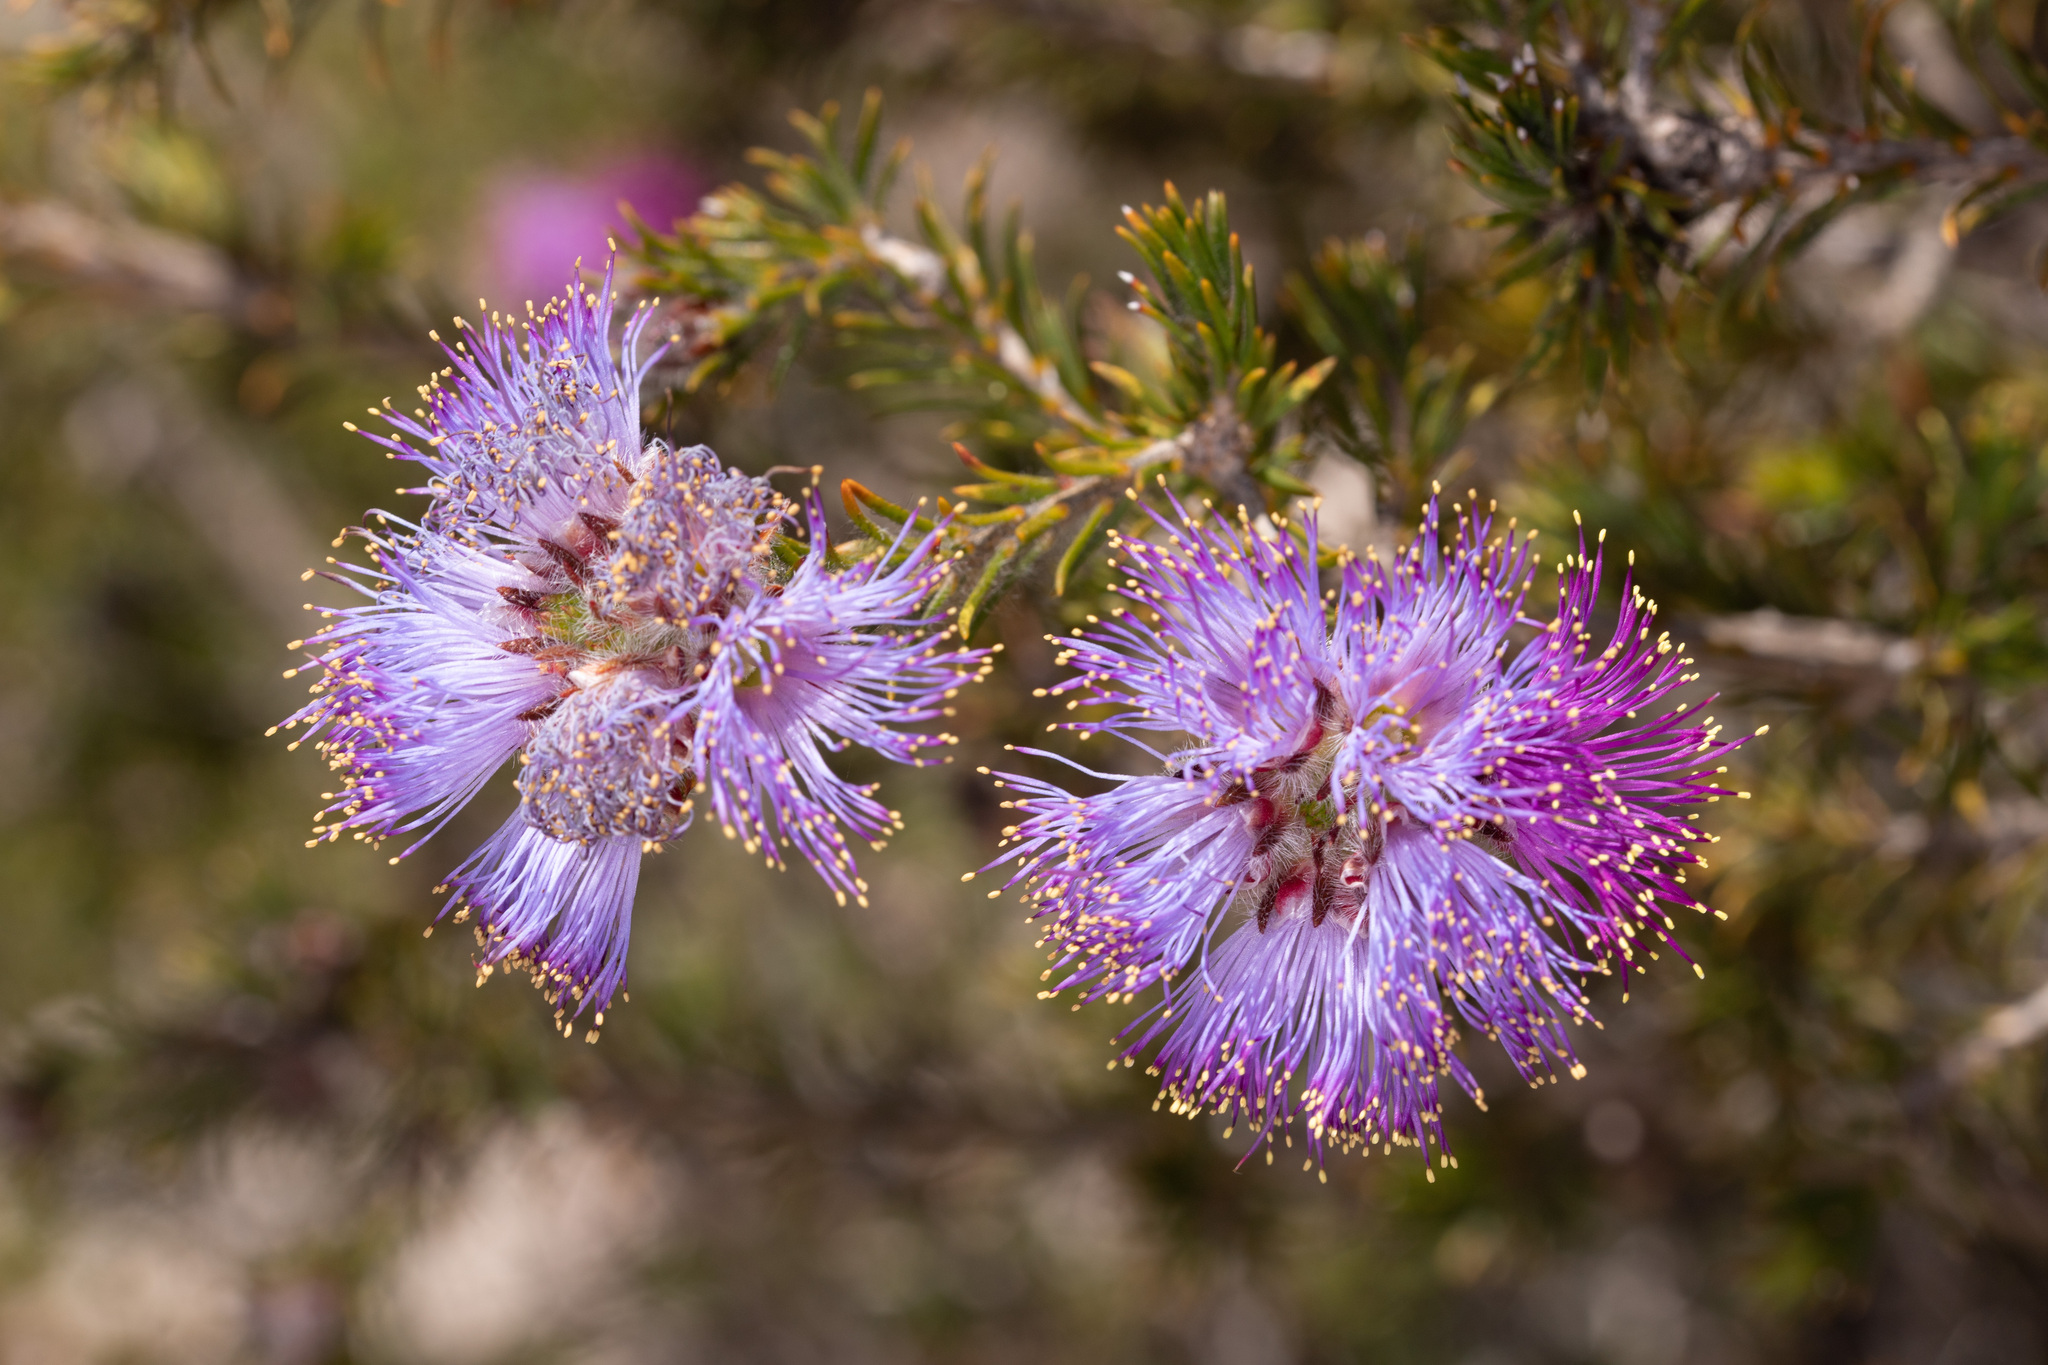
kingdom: Plantae
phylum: Tracheophyta
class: Magnoliopsida
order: Myrtales
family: Myrtaceae
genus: Melaleuca
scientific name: Melaleuca kybeliona
